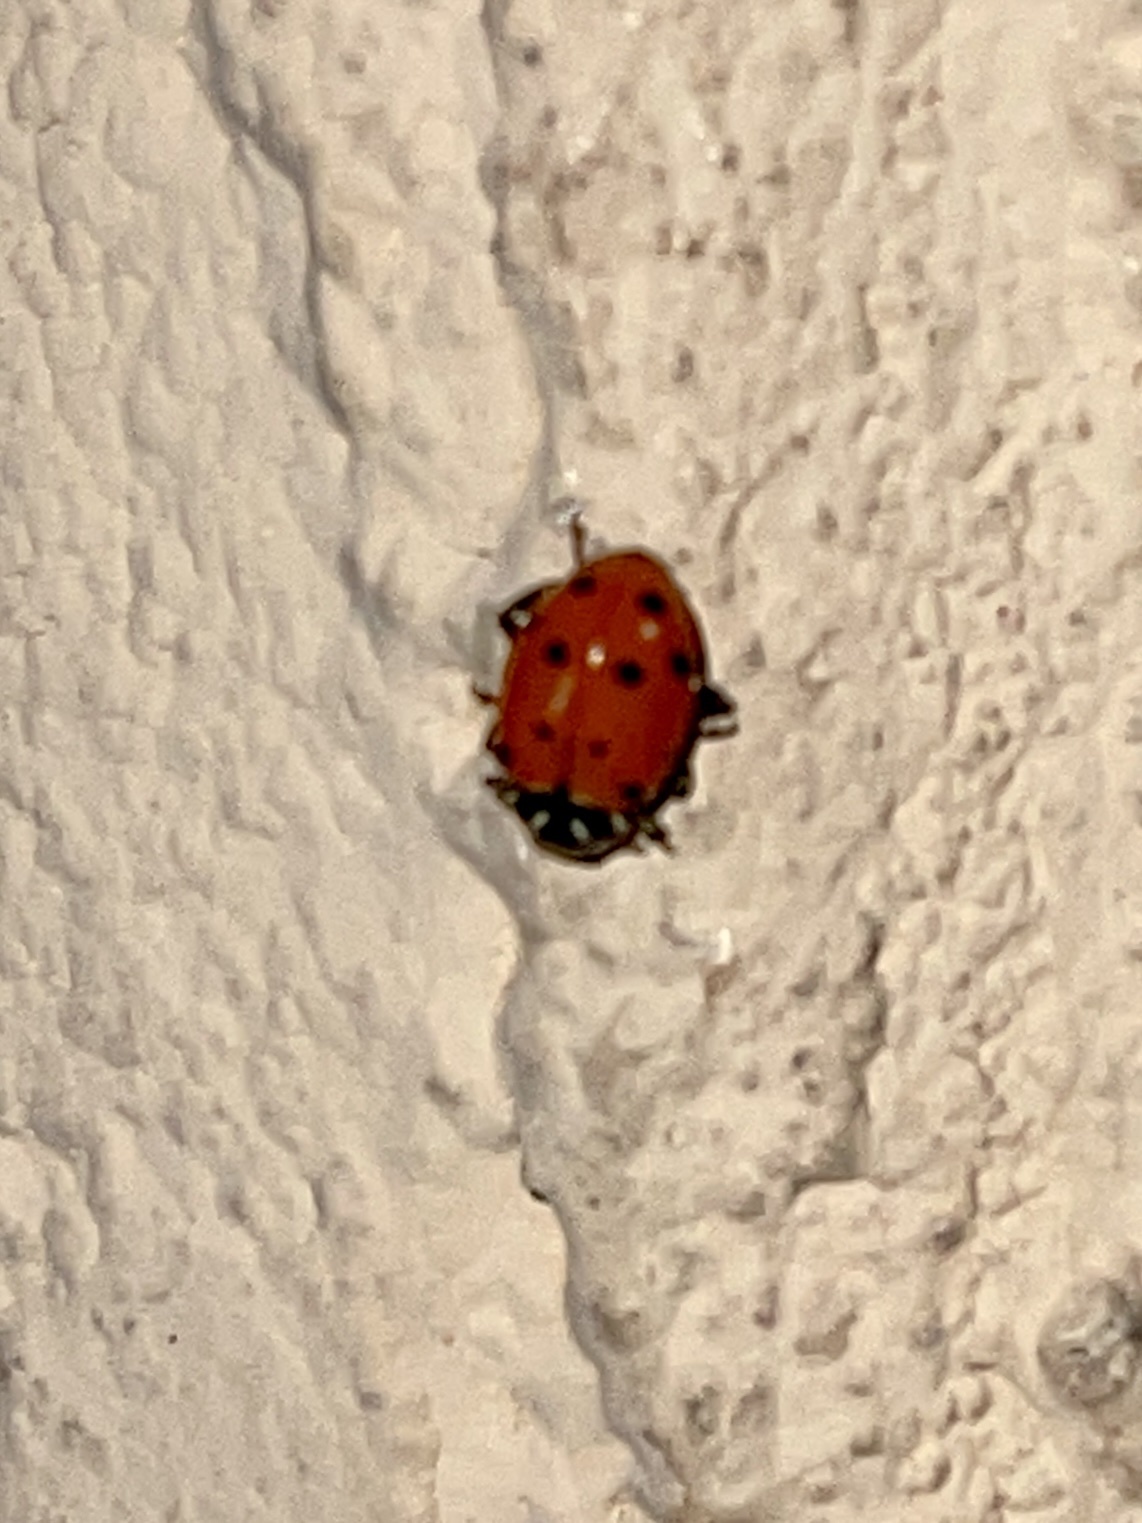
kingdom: Animalia
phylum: Arthropoda
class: Insecta
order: Coleoptera
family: Coccinellidae
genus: Hippodamia
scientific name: Hippodamia convergens
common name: Convergent lady beetle
